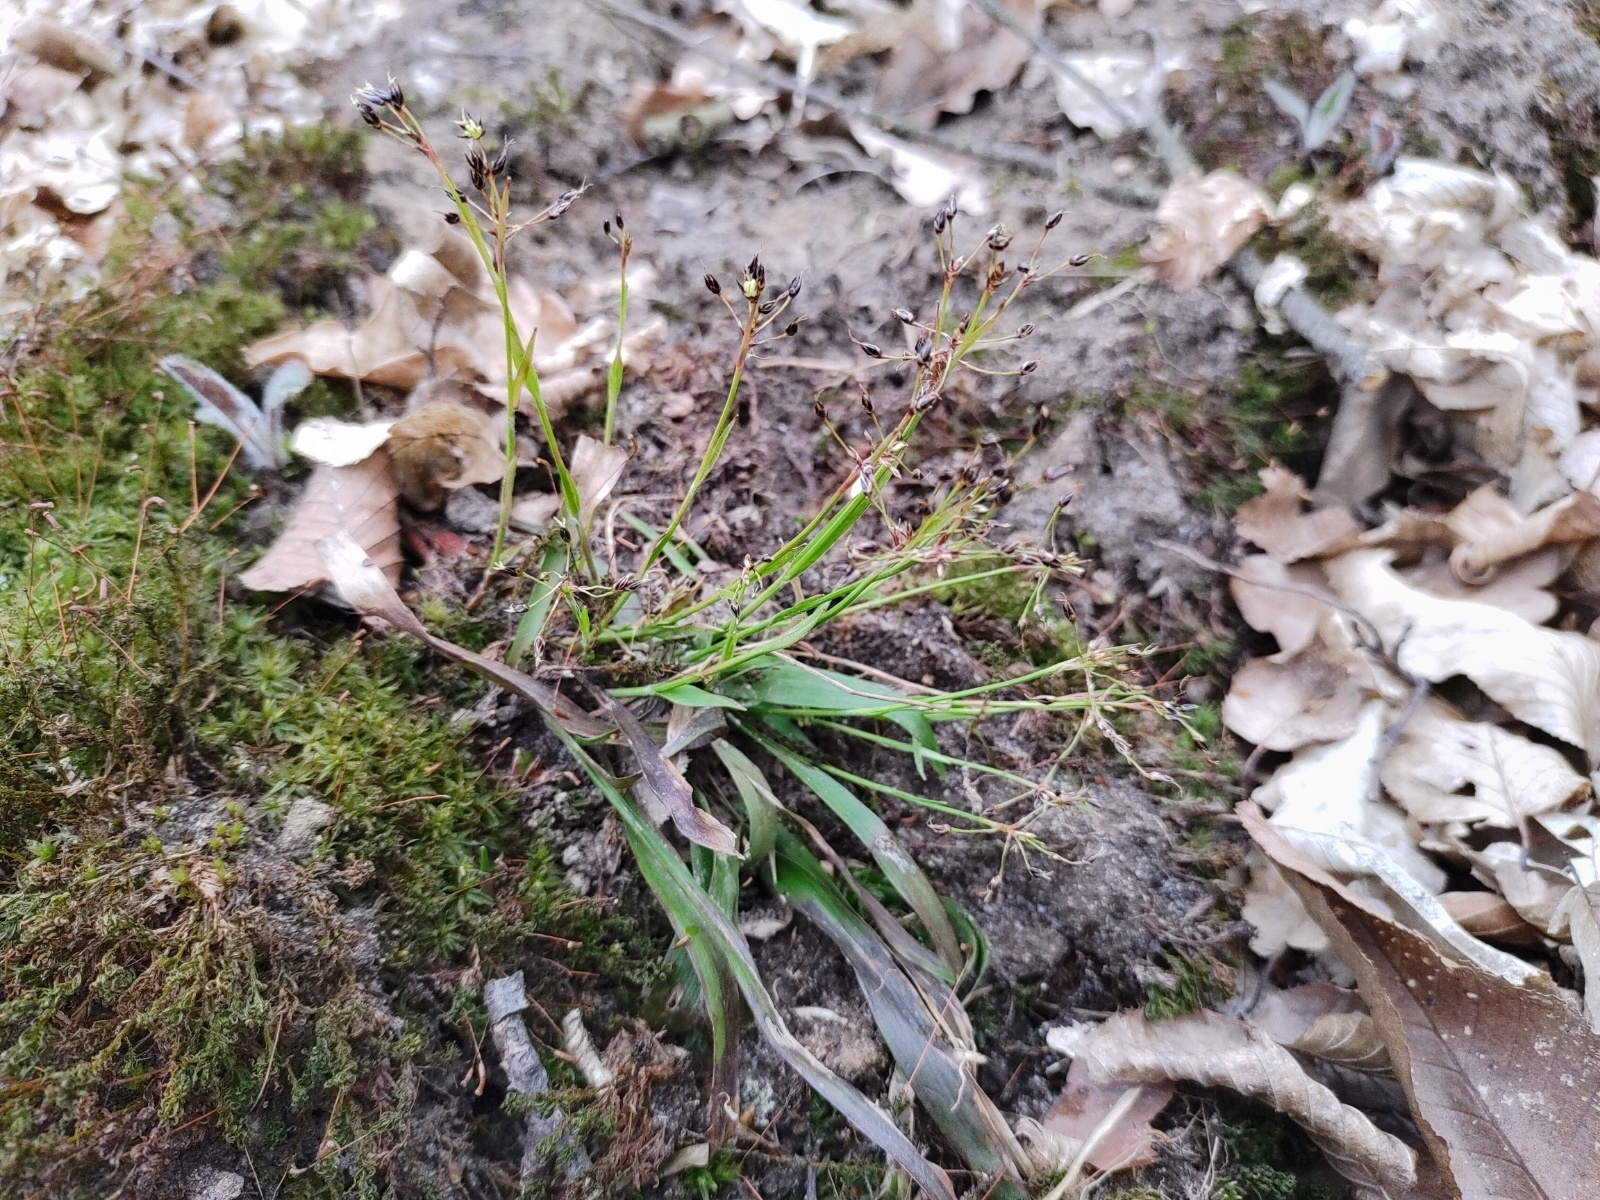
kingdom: Plantae
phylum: Tracheophyta
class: Liliopsida
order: Poales
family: Juncaceae
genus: Luzula
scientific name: Luzula pilosa
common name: Hairy wood-rush
